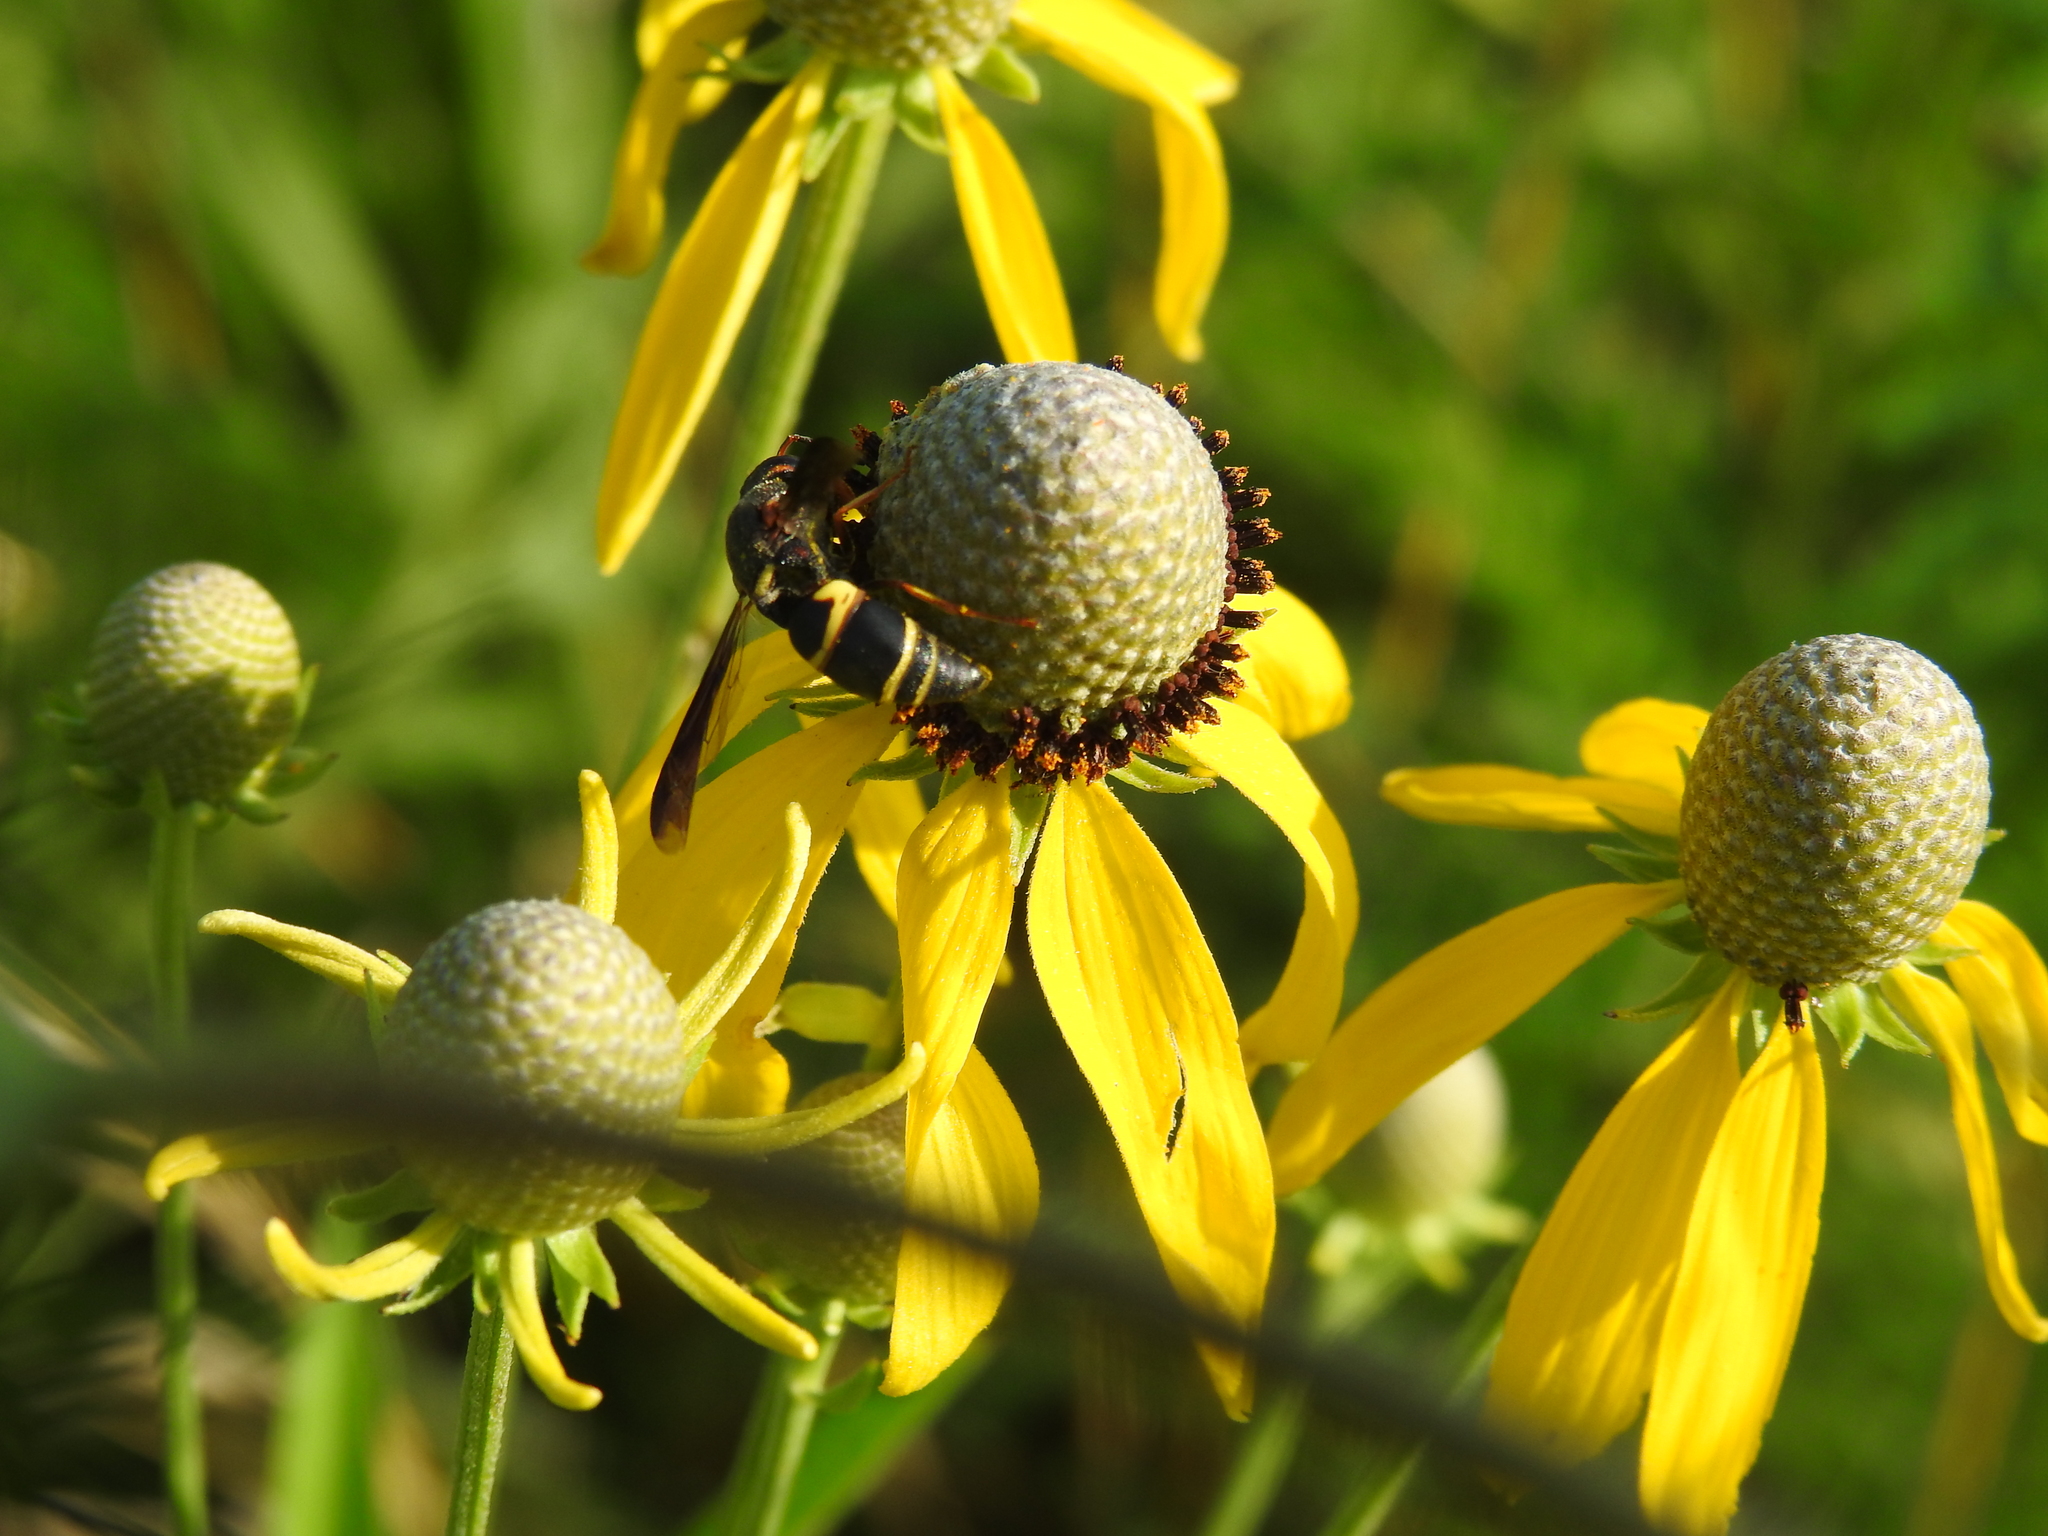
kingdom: Animalia
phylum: Arthropoda
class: Insecta
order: Hymenoptera
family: Eumenidae
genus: Euodynerus
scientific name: Euodynerus hidalgo
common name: Wasp
